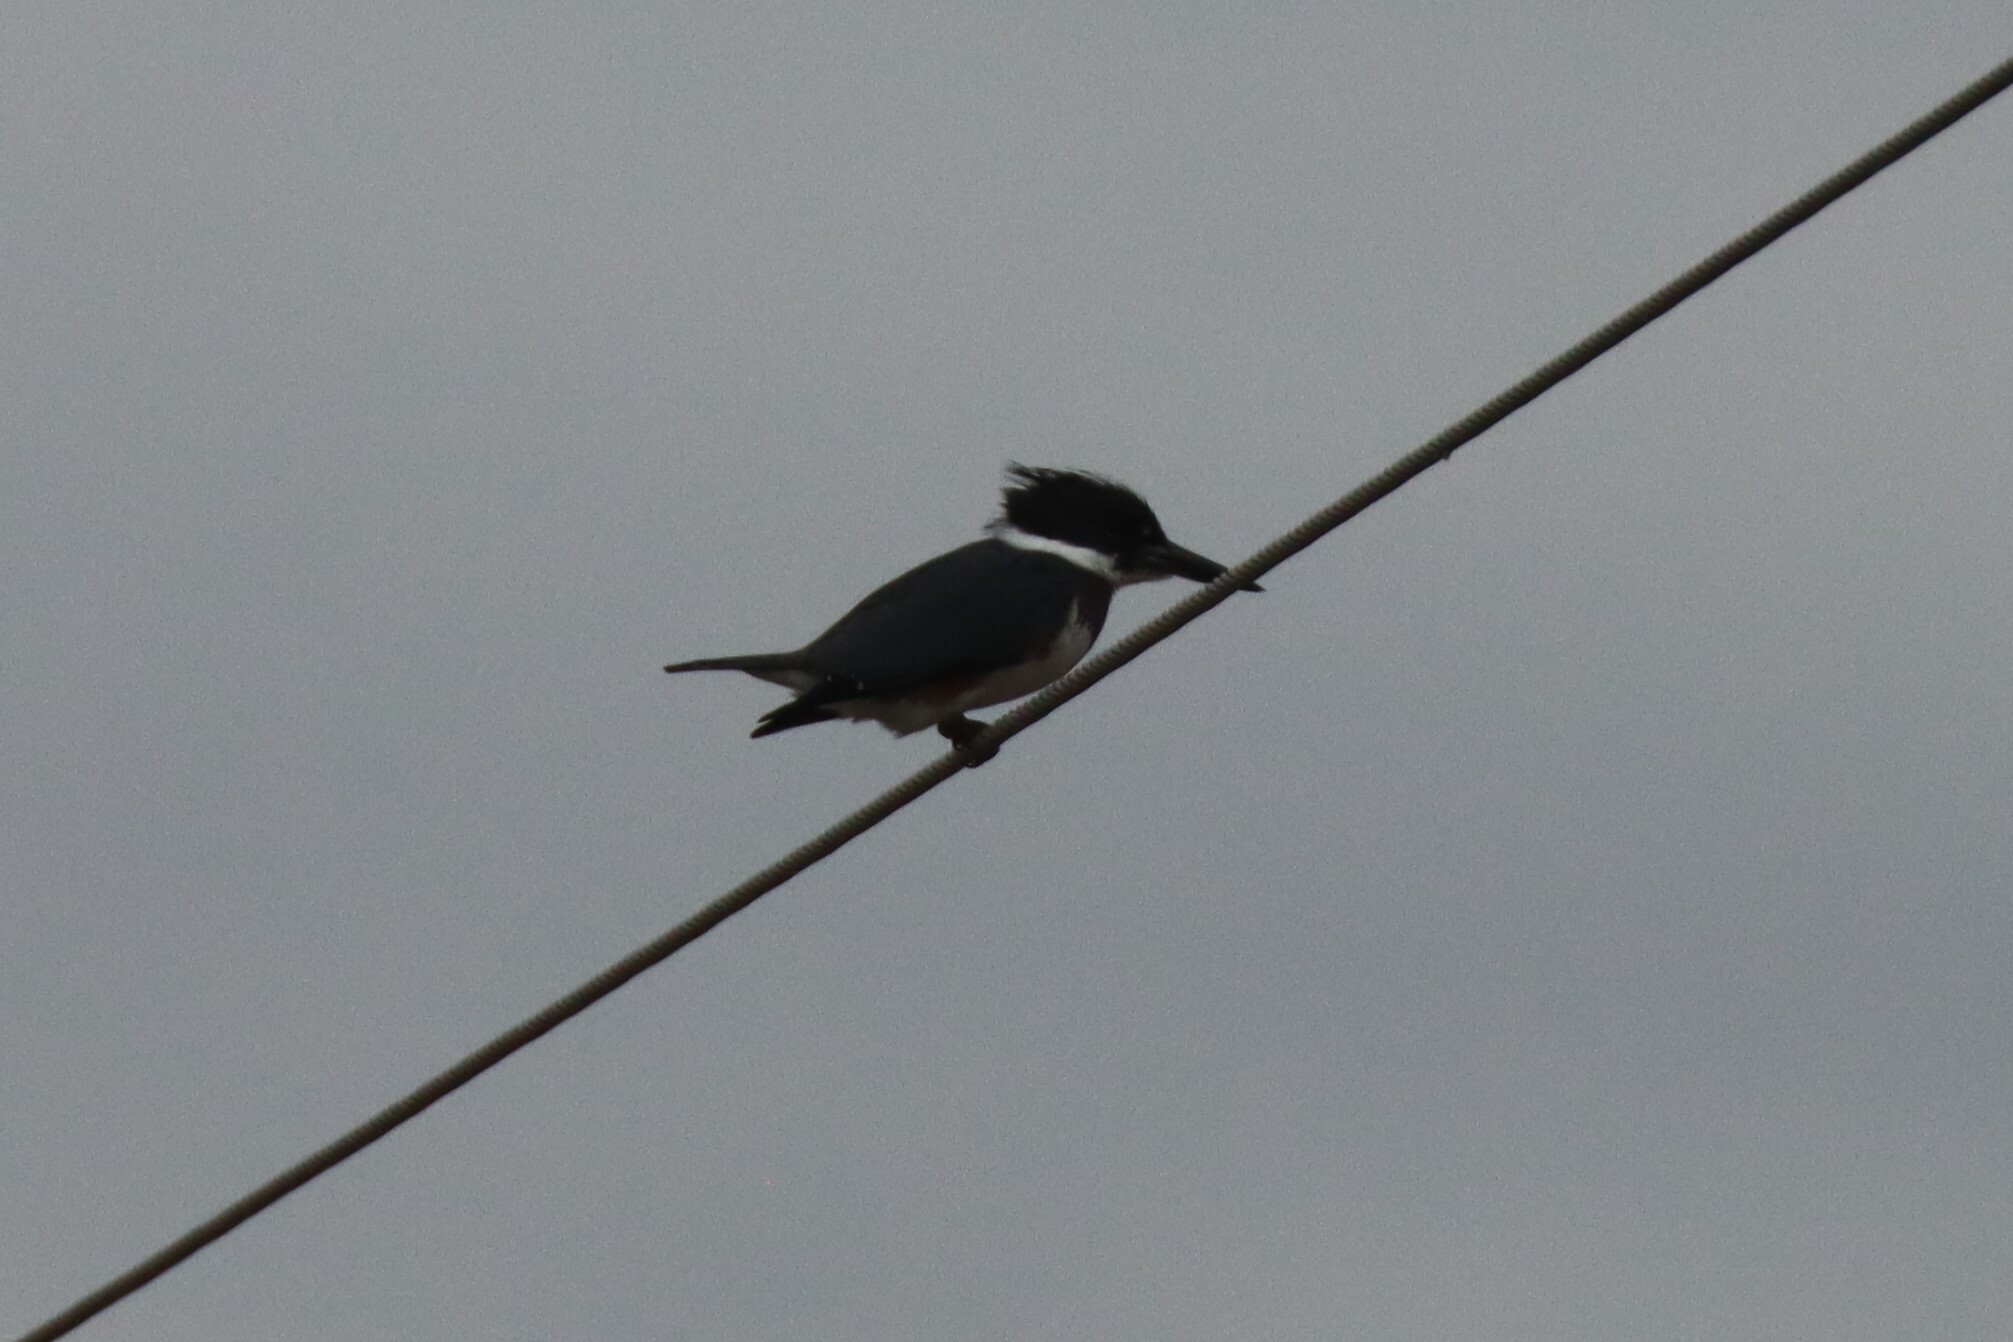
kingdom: Animalia
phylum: Chordata
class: Aves
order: Coraciiformes
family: Alcedinidae
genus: Megaceryle
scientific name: Megaceryle alcyon
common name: Belted kingfisher
